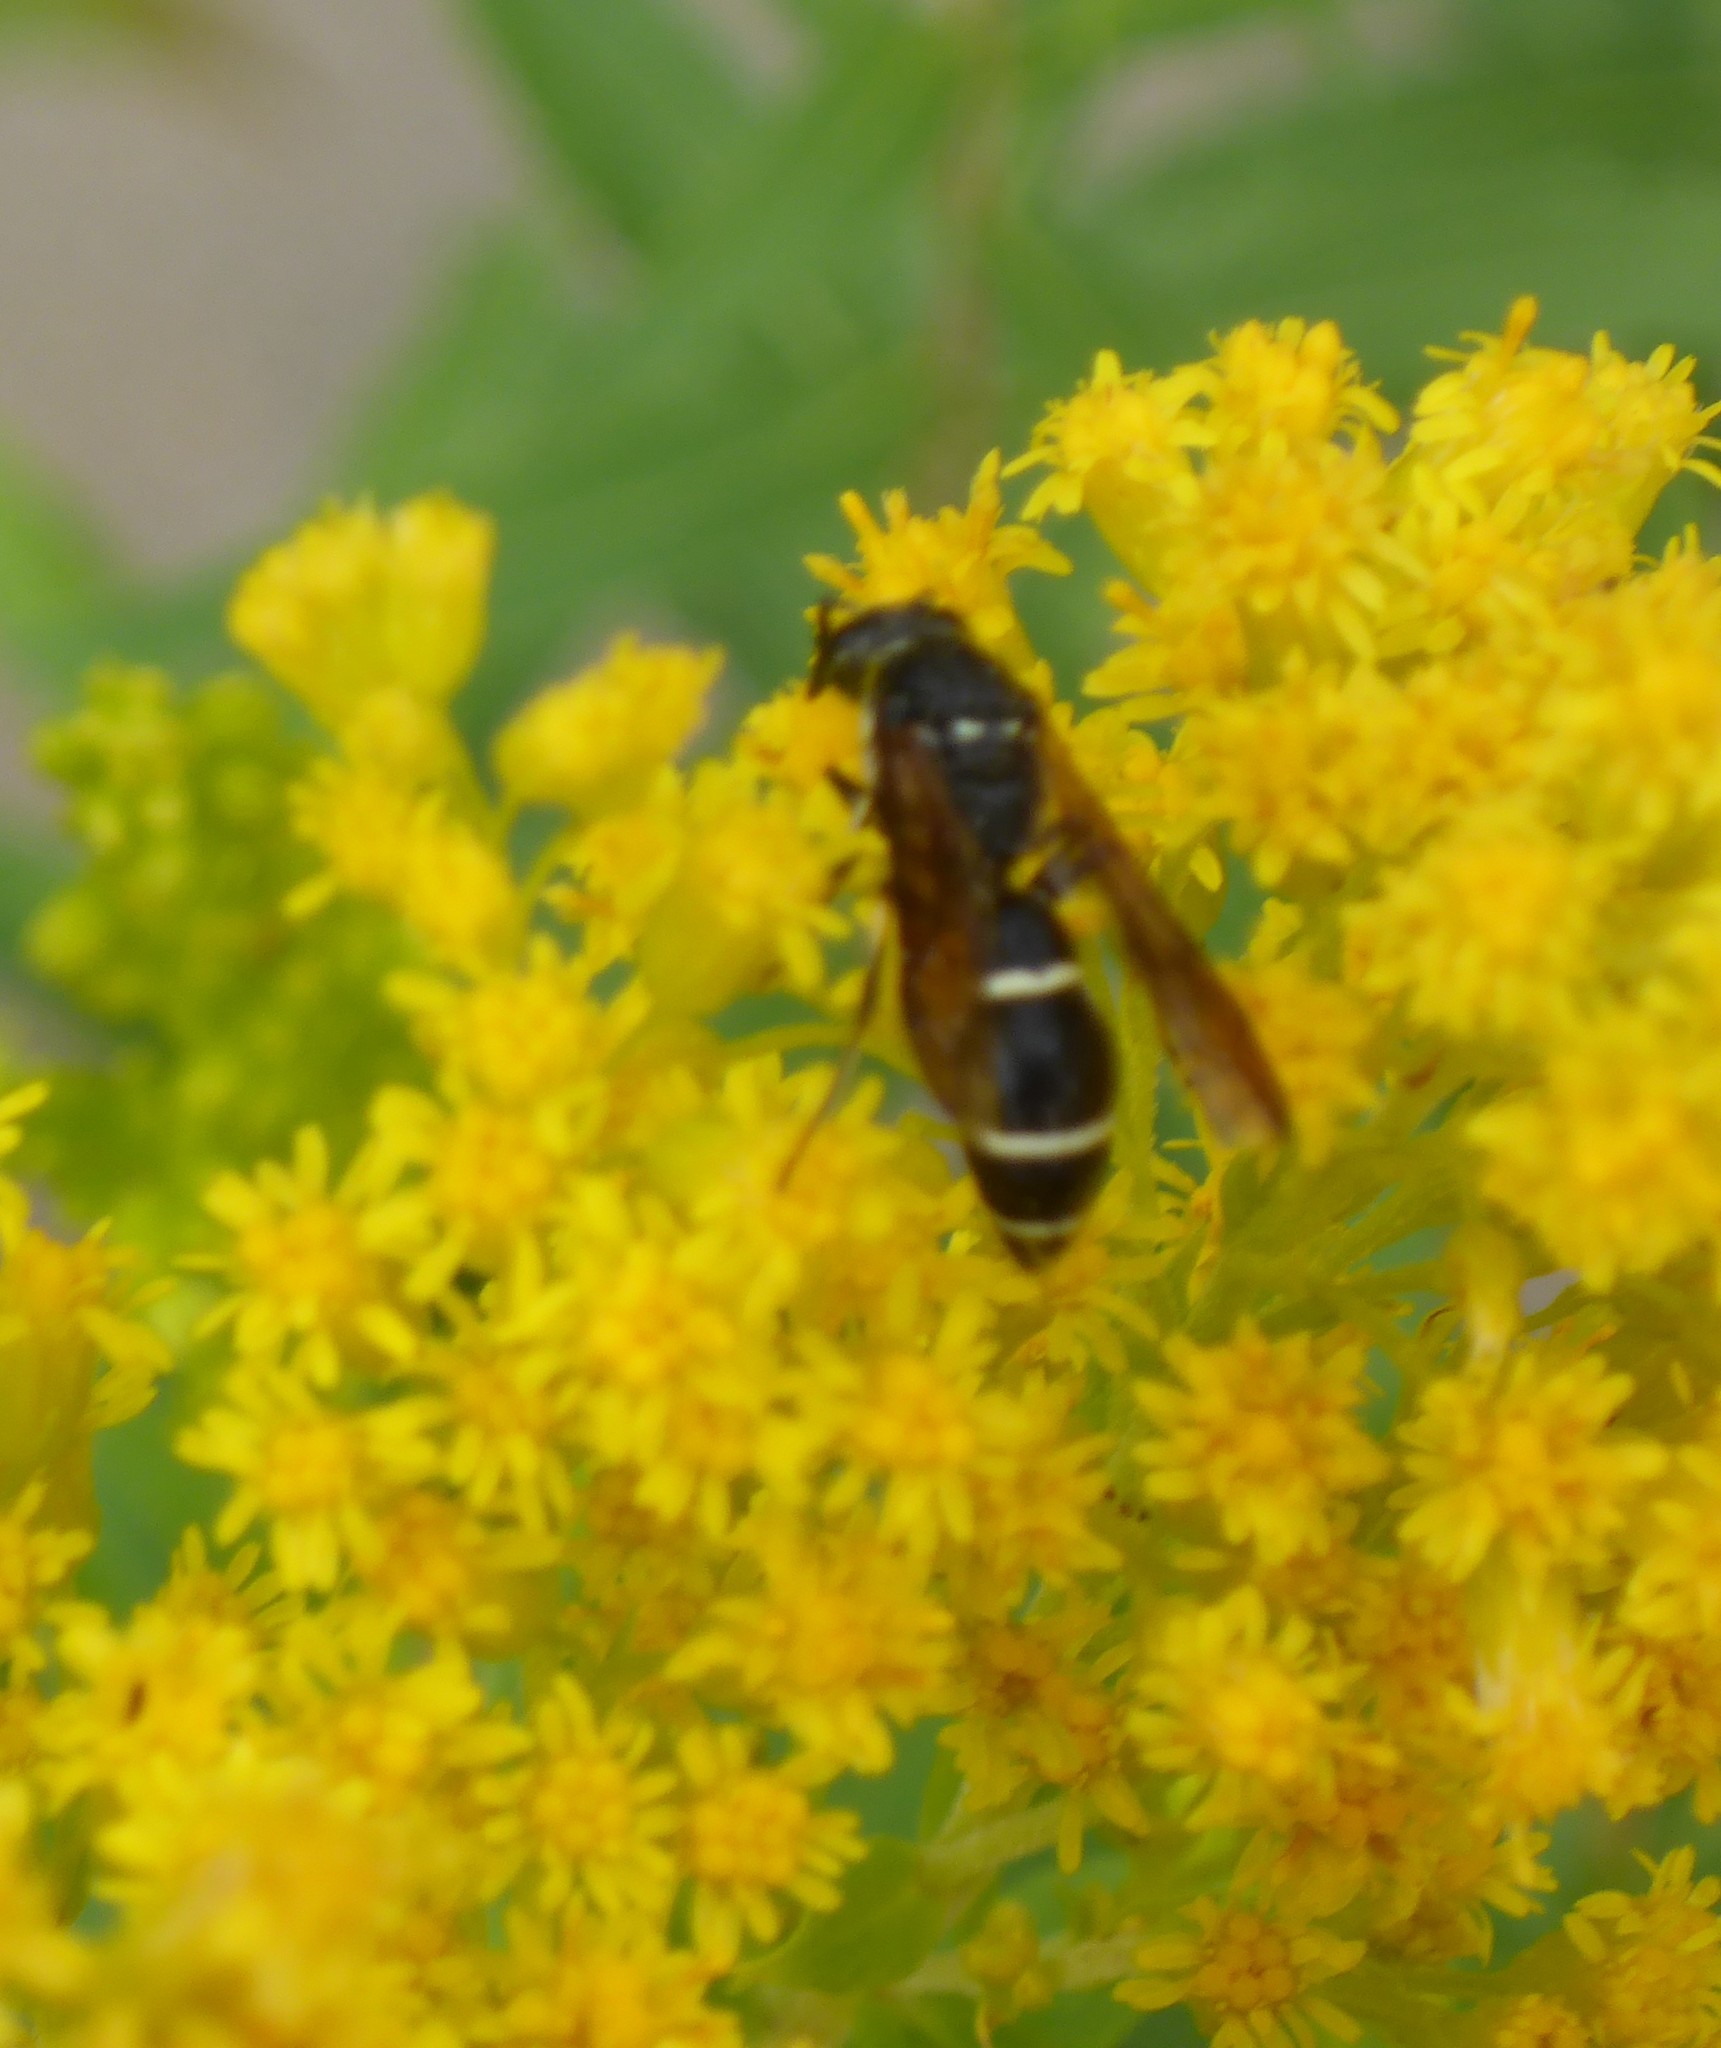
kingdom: Animalia
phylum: Arthropoda
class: Insecta
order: Hymenoptera
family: Eumenidae
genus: Symmorphus
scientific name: Symmorphus
